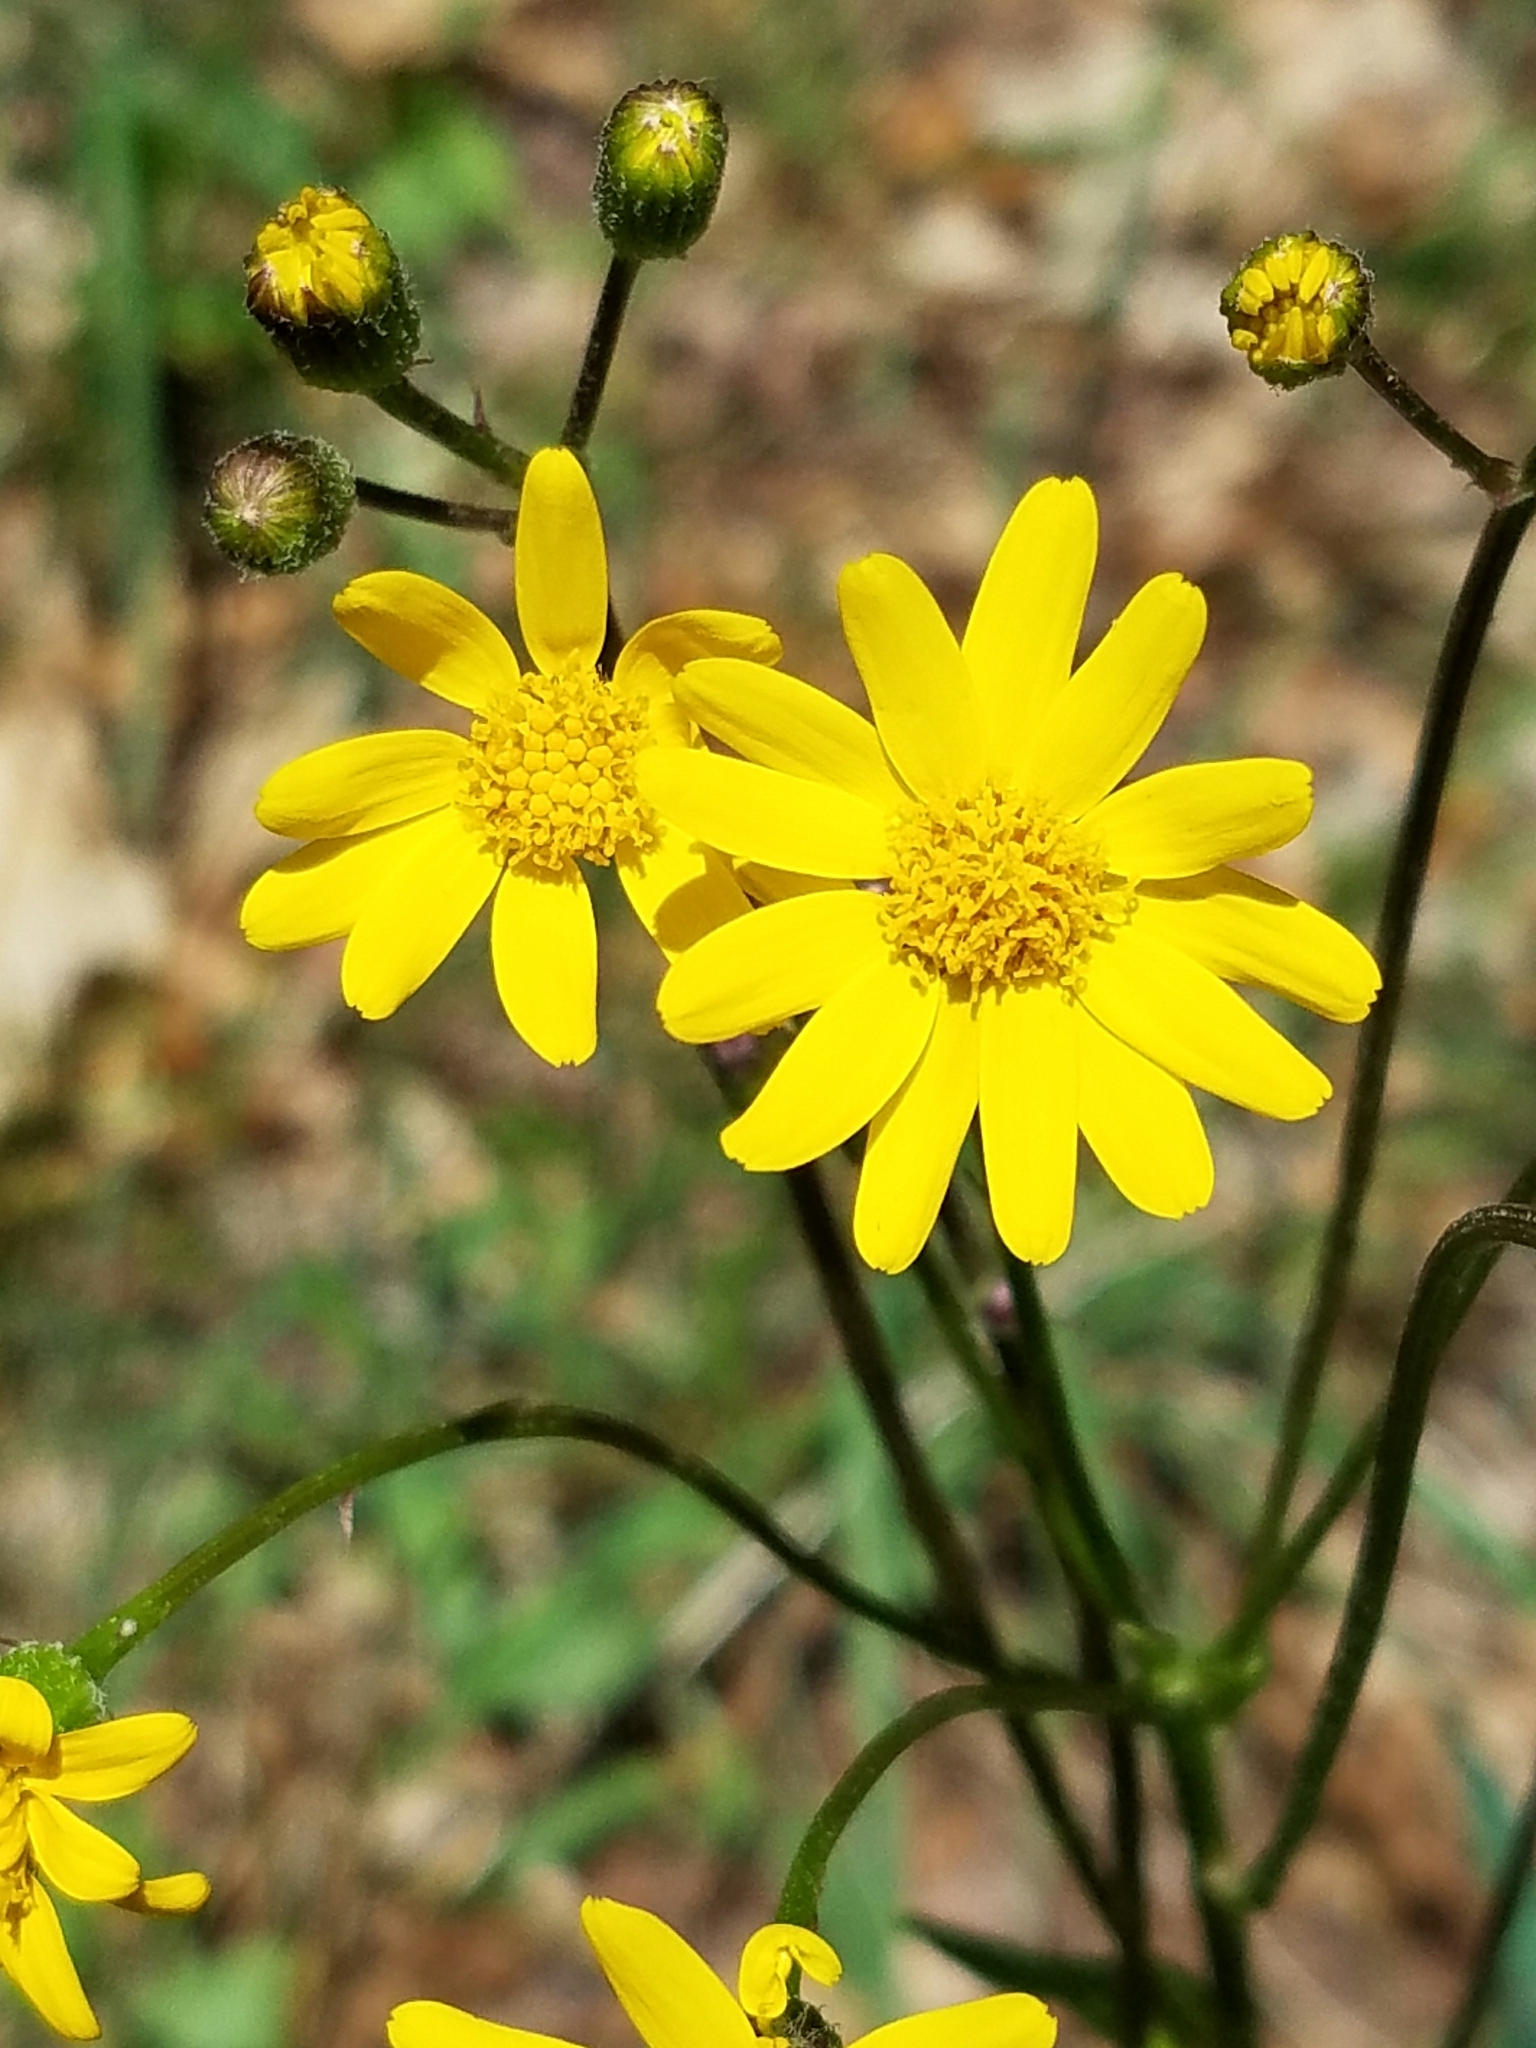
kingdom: Plantae
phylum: Tracheophyta
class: Magnoliopsida
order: Asterales
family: Asteraceae
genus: Packera
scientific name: Packera aurea
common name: Golden groundsel
